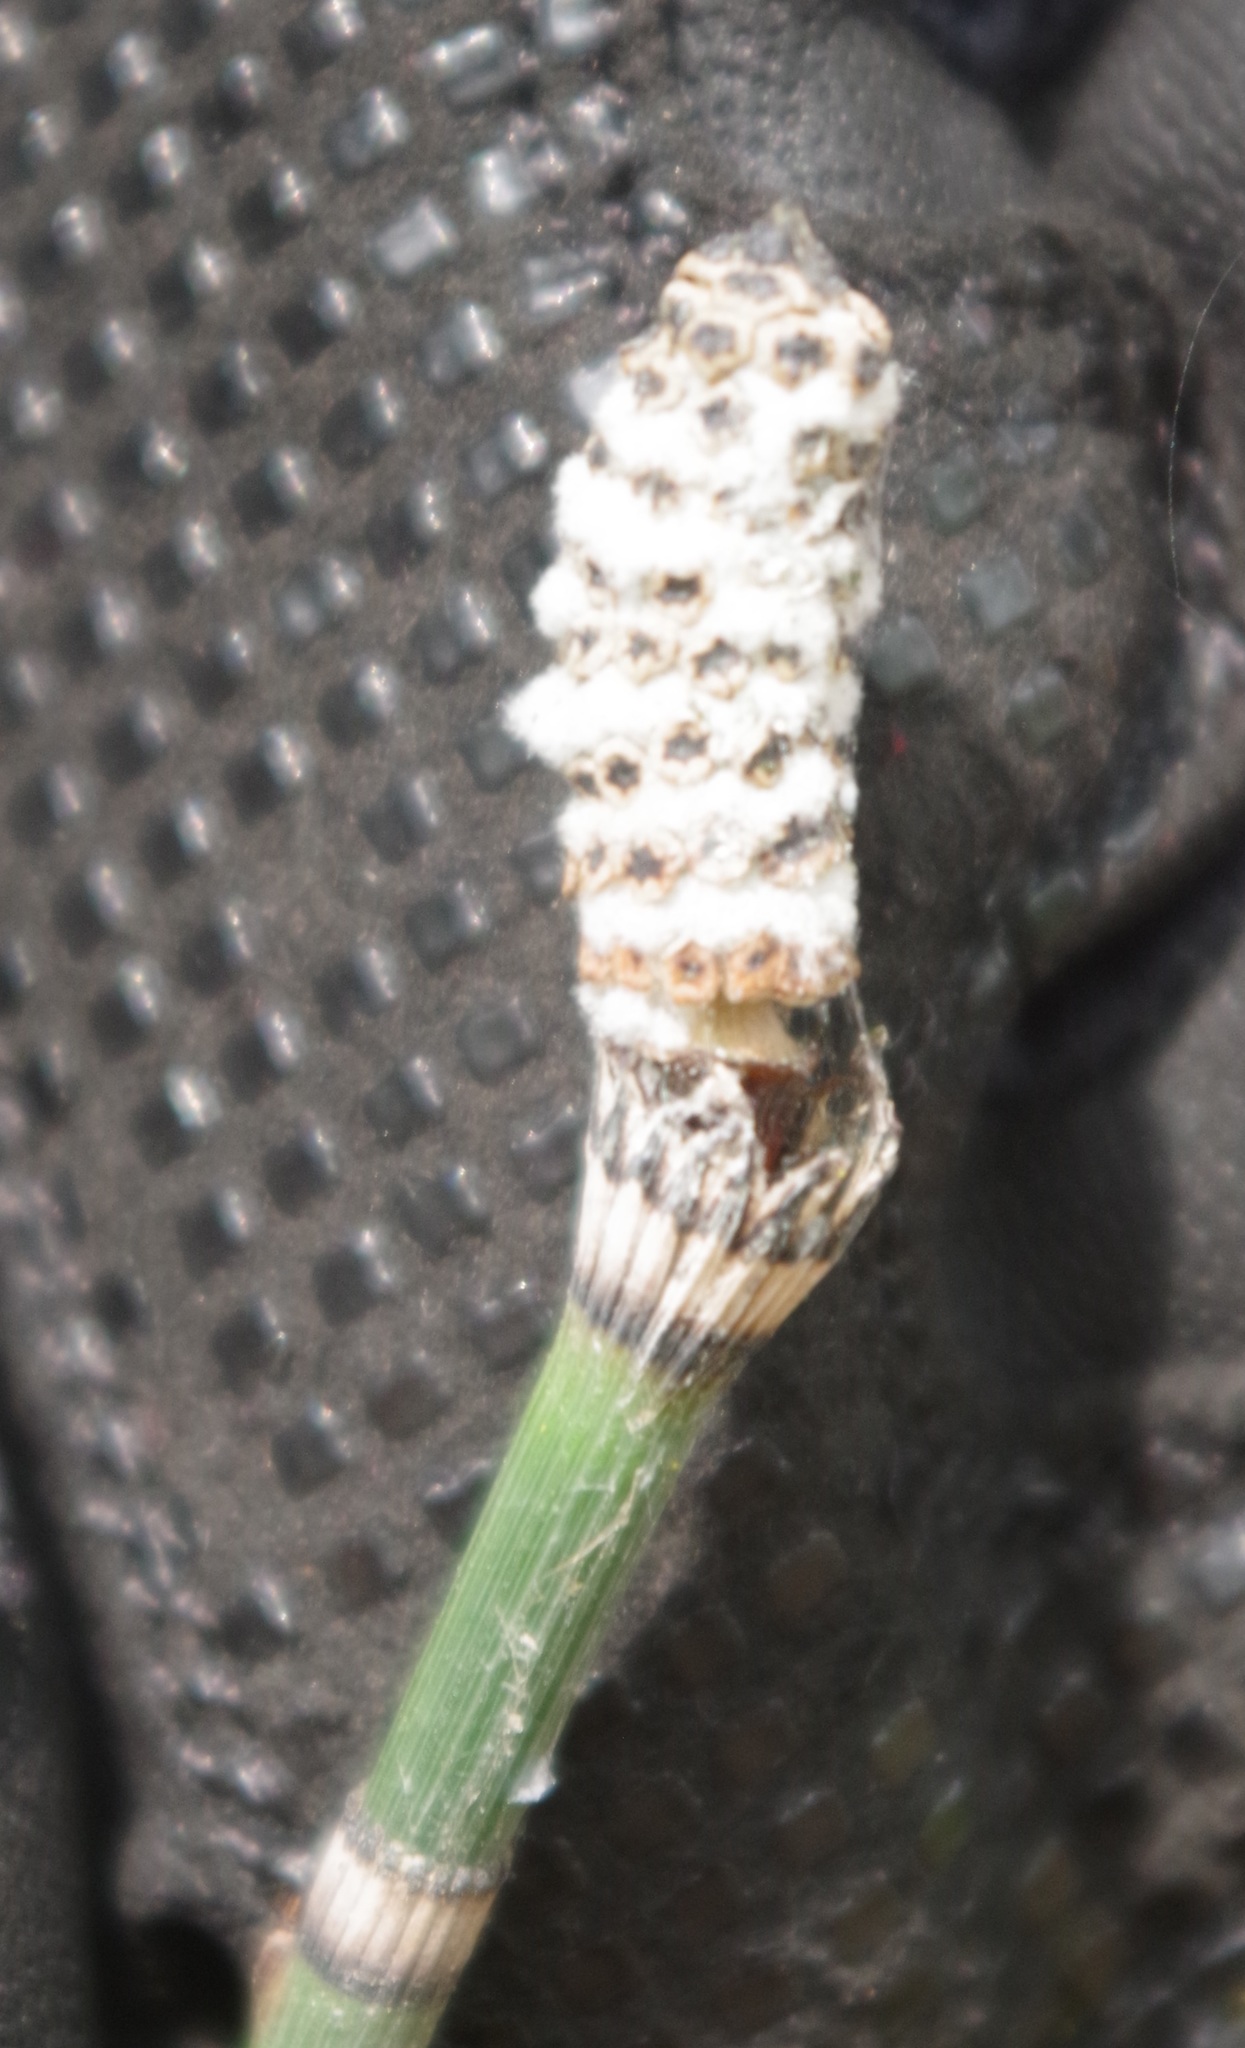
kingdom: Plantae
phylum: Tracheophyta
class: Polypodiopsida
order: Equisetales
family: Equisetaceae
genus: Equisetum
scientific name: Equisetum hyemale
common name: Rough horsetail
